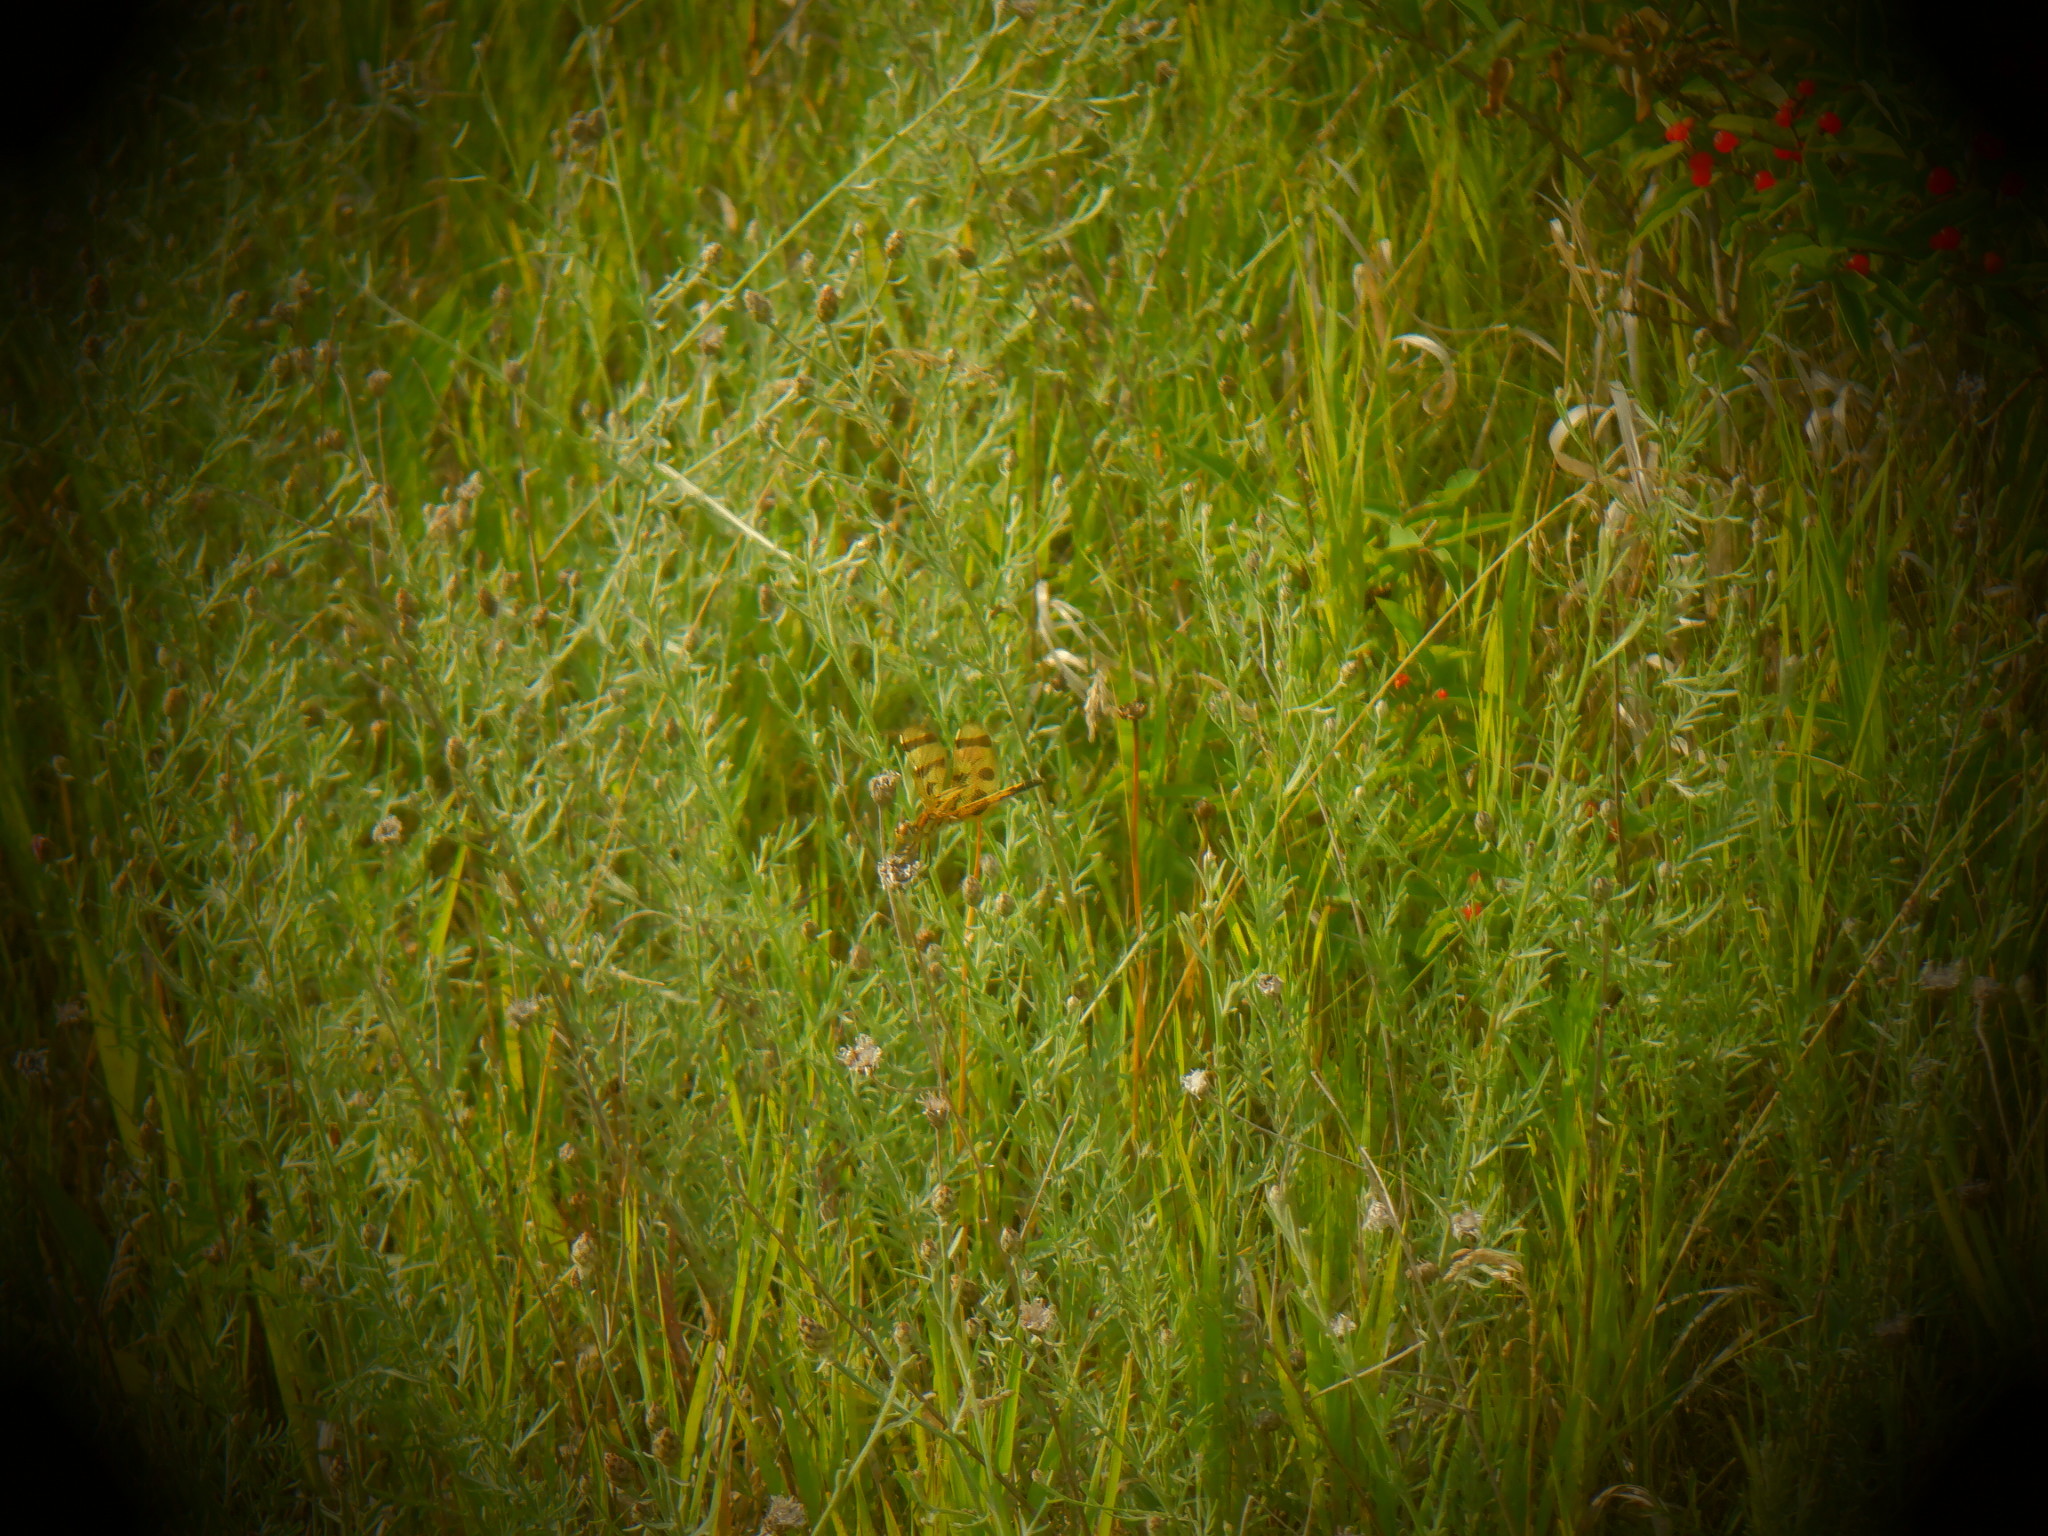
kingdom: Animalia
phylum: Arthropoda
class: Insecta
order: Odonata
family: Libellulidae
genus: Celithemis
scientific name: Celithemis eponina
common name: Halloween pennant
